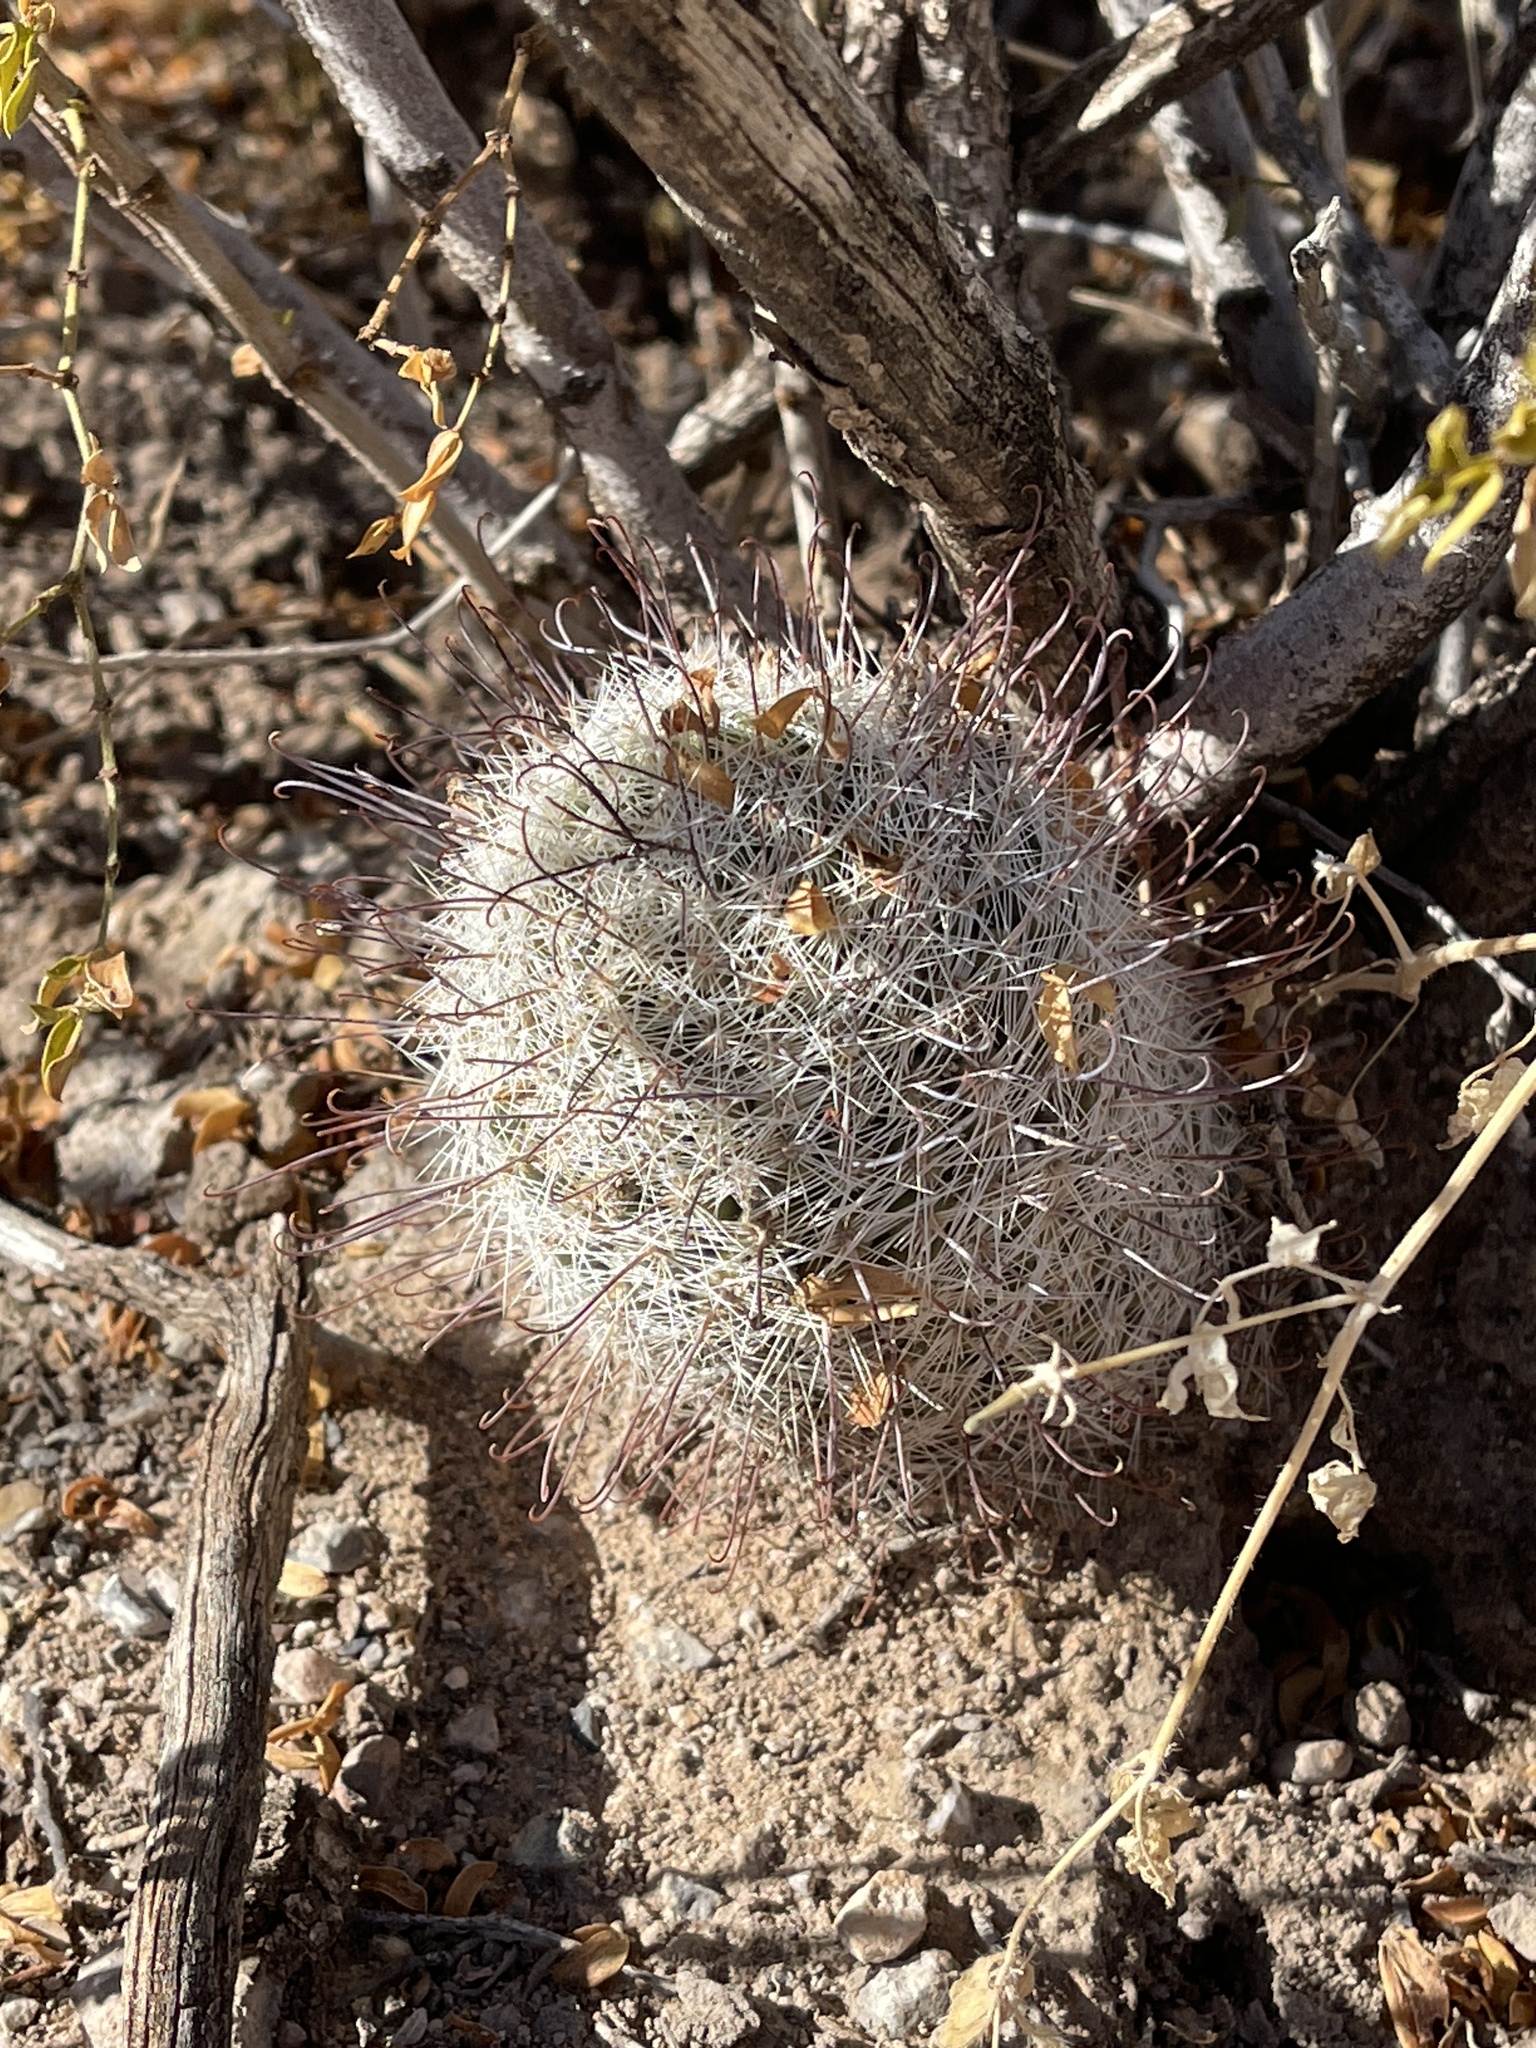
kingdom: Plantae
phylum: Tracheophyta
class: Magnoliopsida
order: Caryophyllales
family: Cactaceae
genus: Cochemiea
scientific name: Cochemiea grahamii
